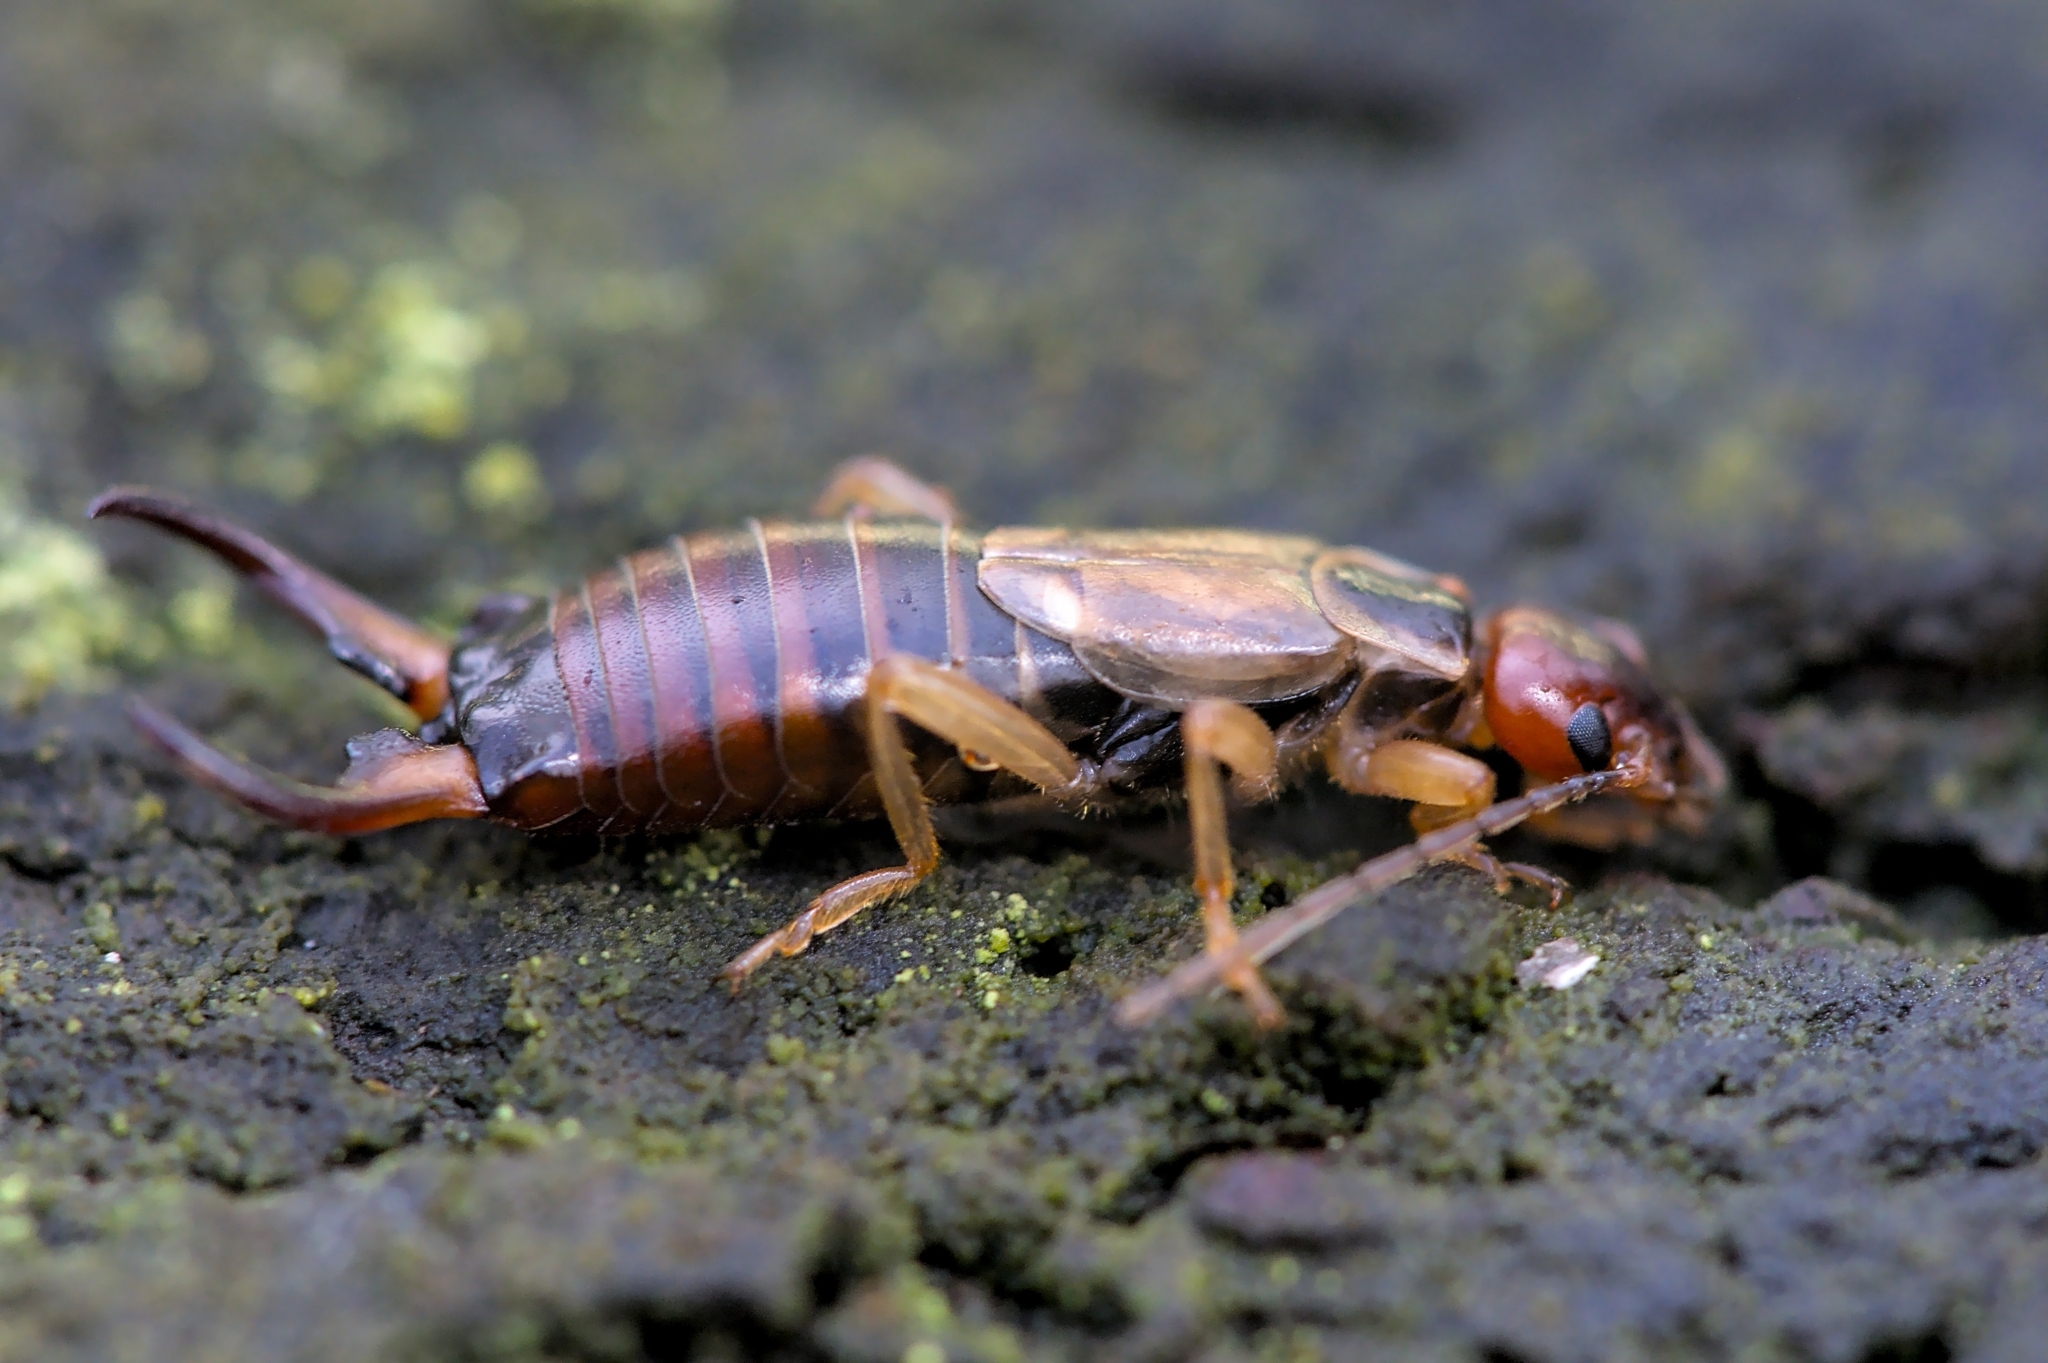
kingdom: Animalia
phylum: Arthropoda
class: Insecta
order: Dermaptera
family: Forficulidae
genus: Forficula
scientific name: Forficula
